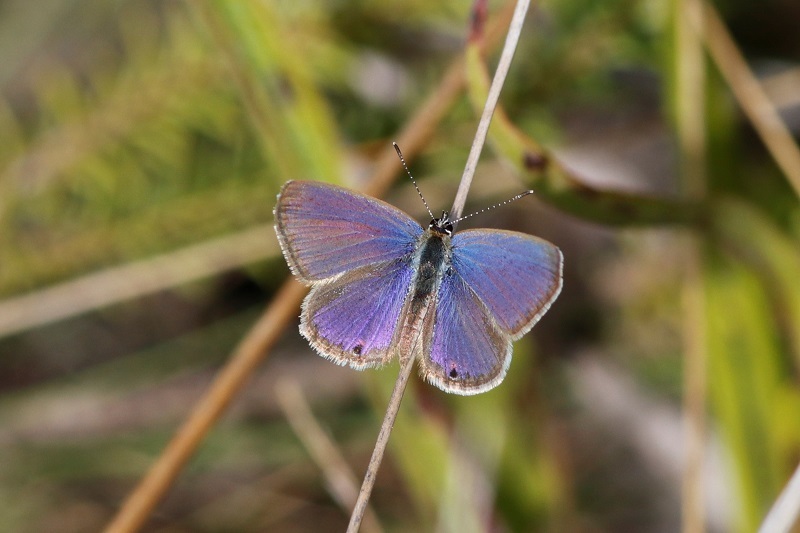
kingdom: Animalia
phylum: Arthropoda
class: Insecta
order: Lepidoptera
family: Lycaenidae
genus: Eicochrysops
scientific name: Eicochrysops messapus
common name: Cupreous blue
